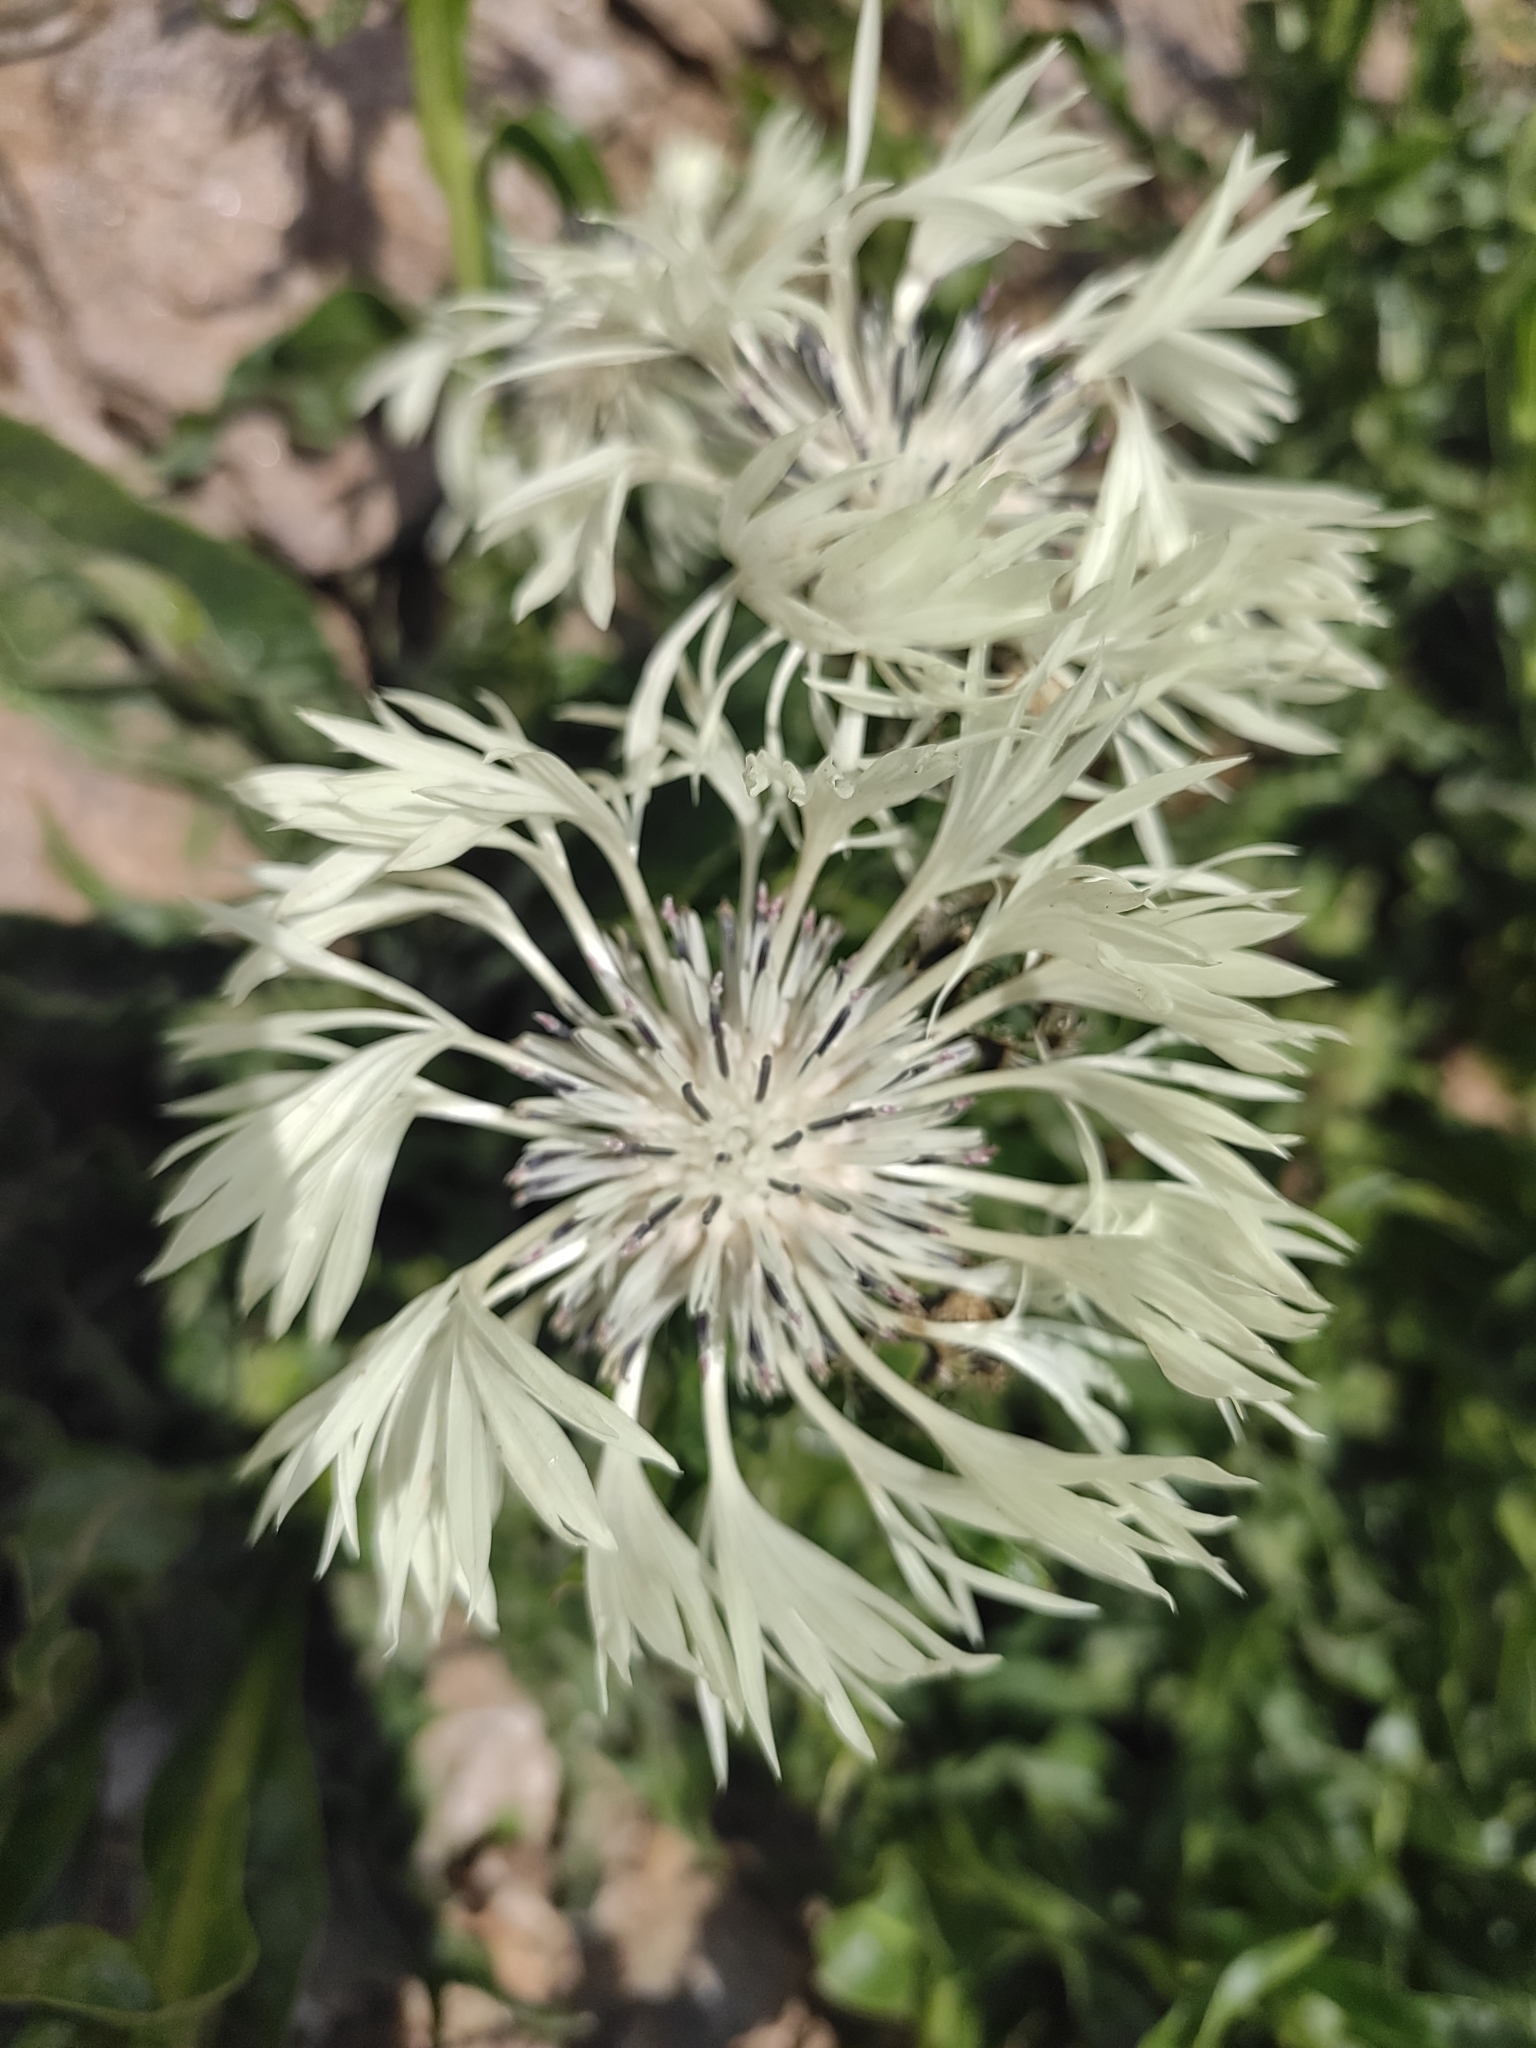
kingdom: Plantae
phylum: Tracheophyta
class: Magnoliopsida
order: Asterales
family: Asteraceae
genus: Centaurea
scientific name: Centaurea cheiranthifolia
